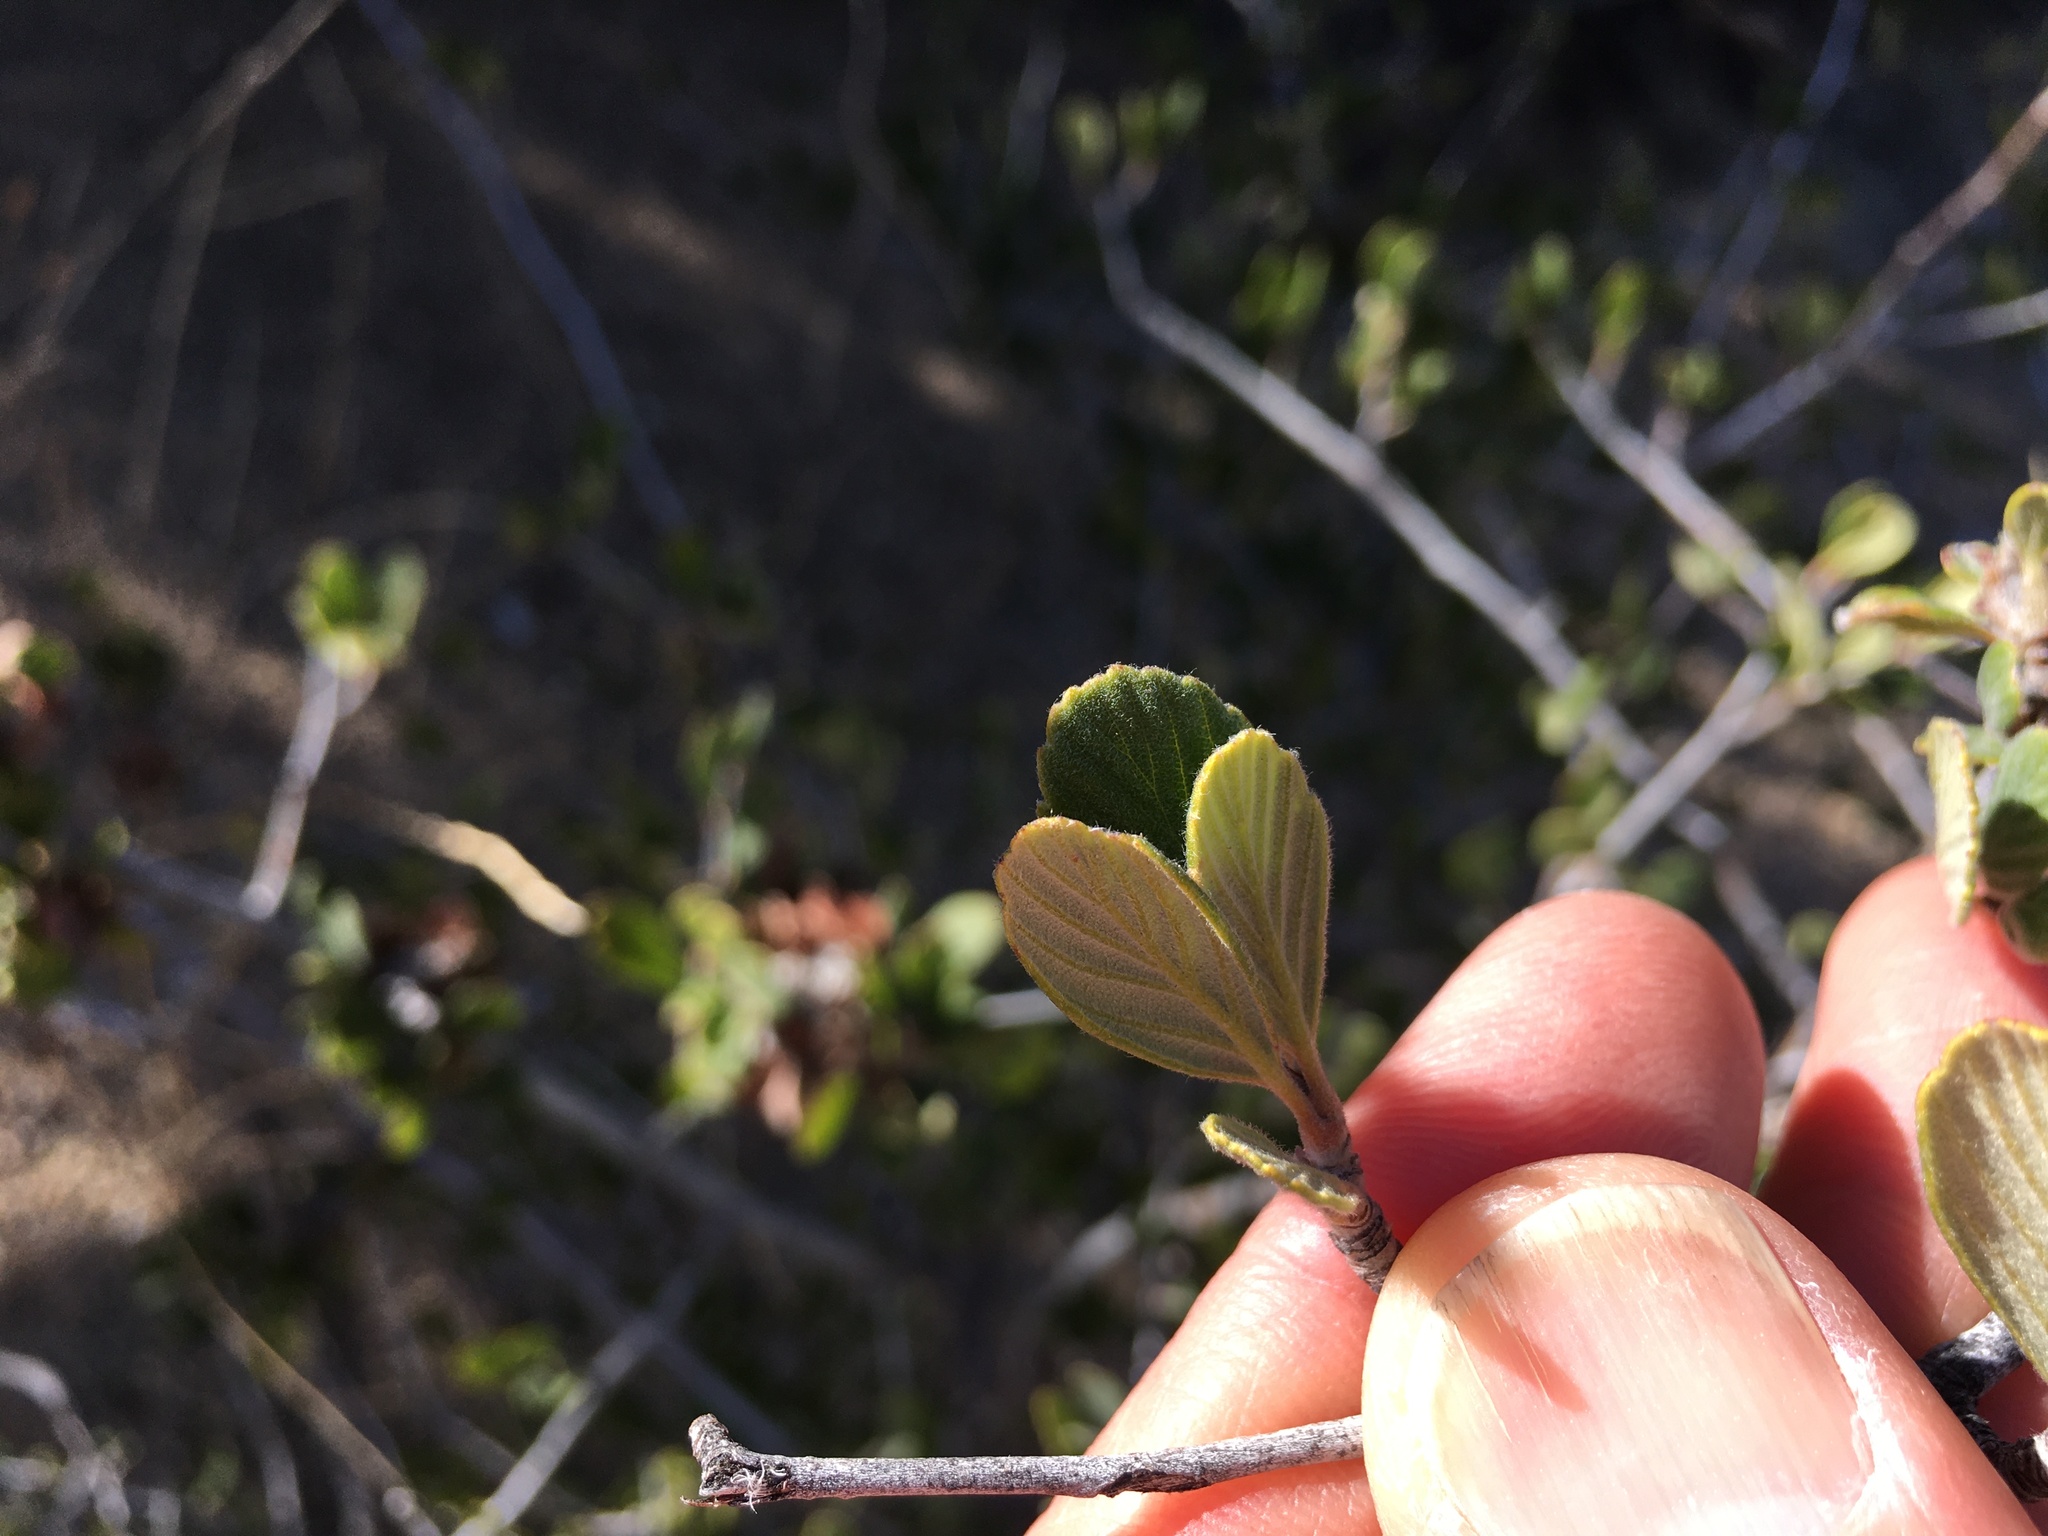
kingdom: Plantae
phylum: Tracheophyta
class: Magnoliopsida
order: Rosales
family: Rosaceae
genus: Cercocarpus
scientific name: Cercocarpus betuloides
